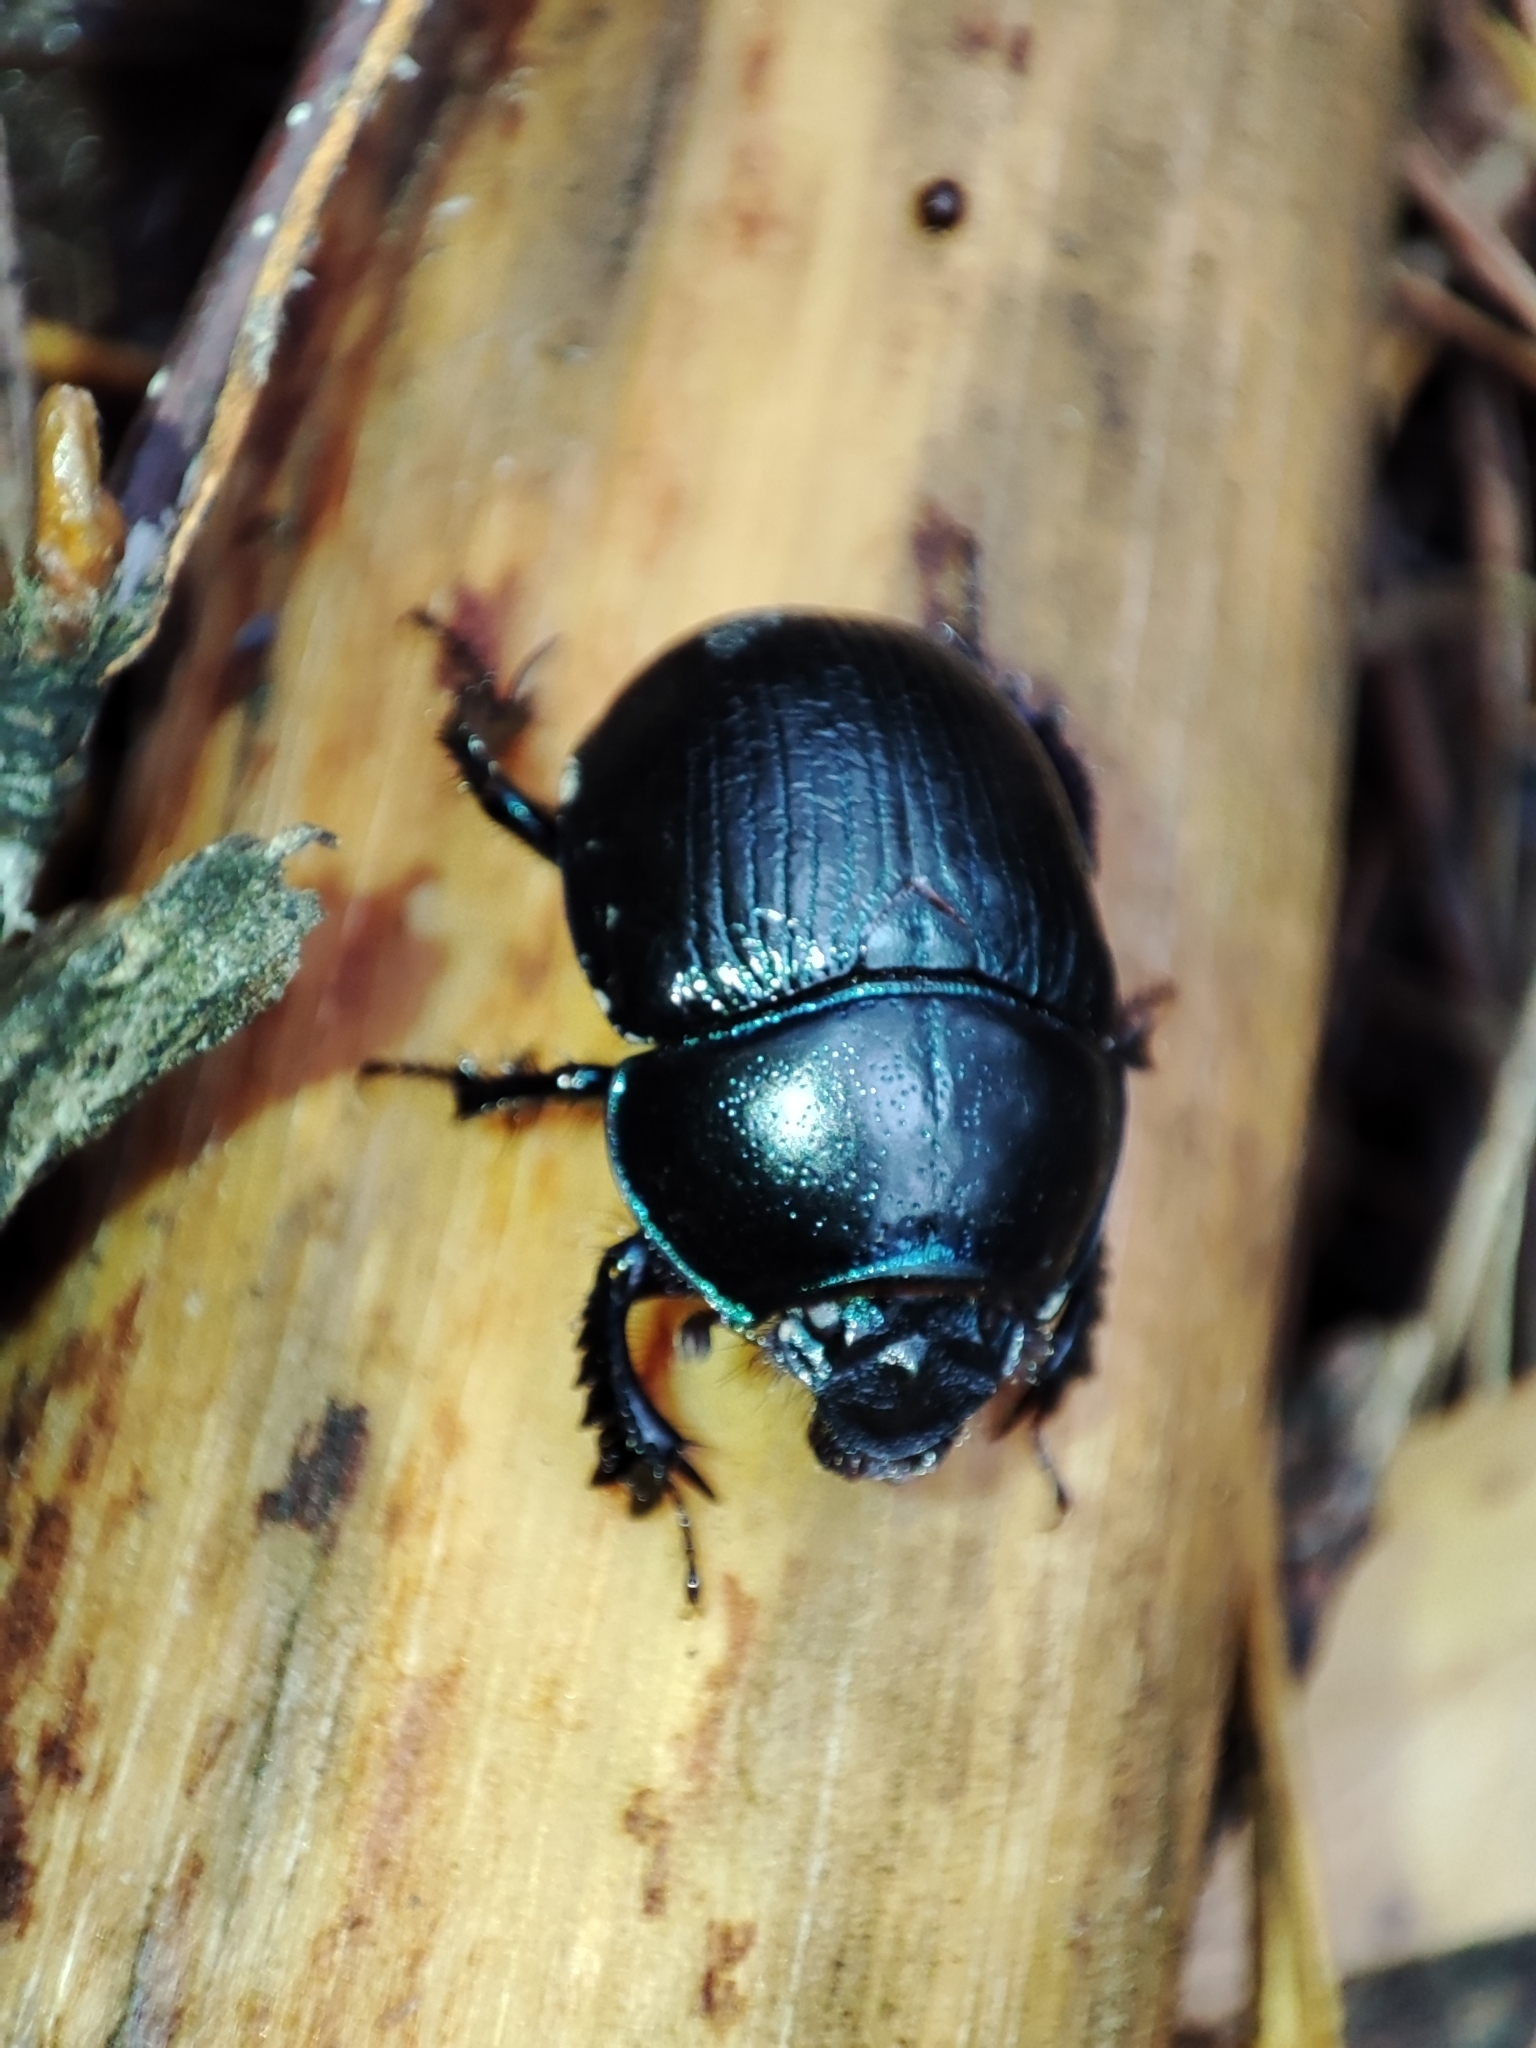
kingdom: Animalia
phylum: Arthropoda
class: Insecta
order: Coleoptera
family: Geotrupidae
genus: Anoplotrupes
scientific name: Anoplotrupes stercorosus
